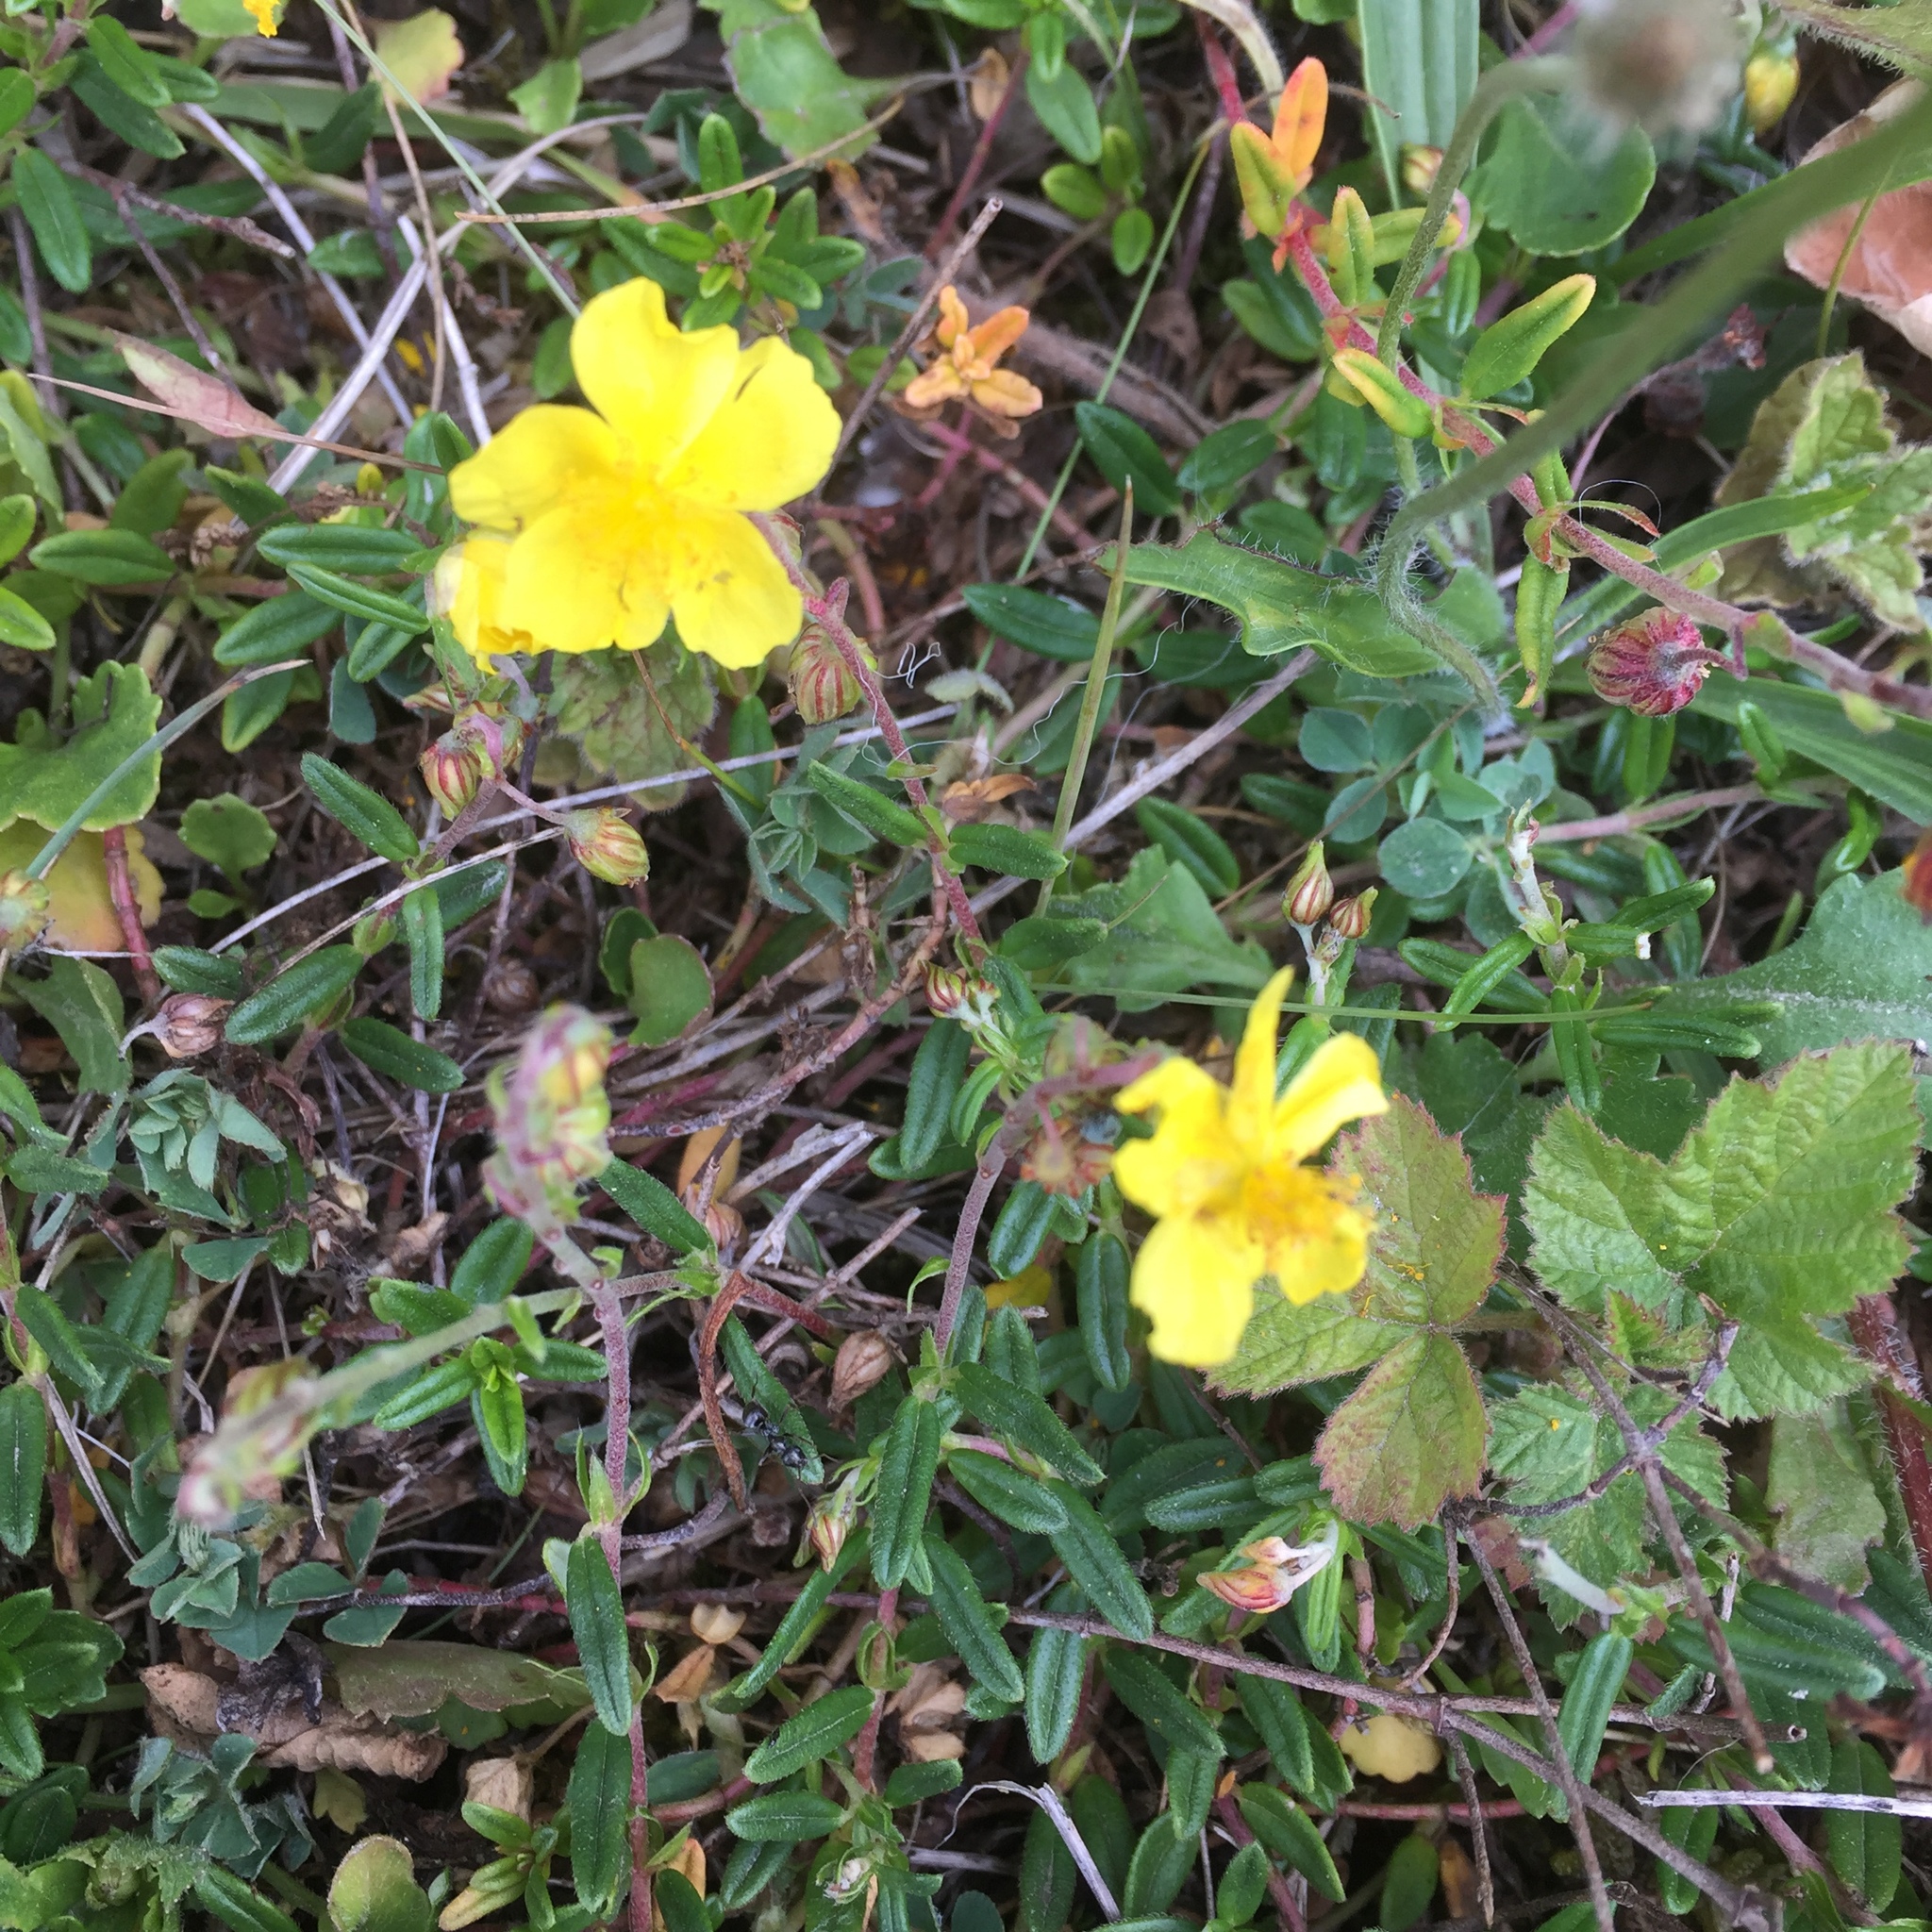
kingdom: Plantae
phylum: Tracheophyta
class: Magnoliopsida
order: Malvales
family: Cistaceae
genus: Helianthemum
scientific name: Helianthemum nummularium
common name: Common rock-rose
